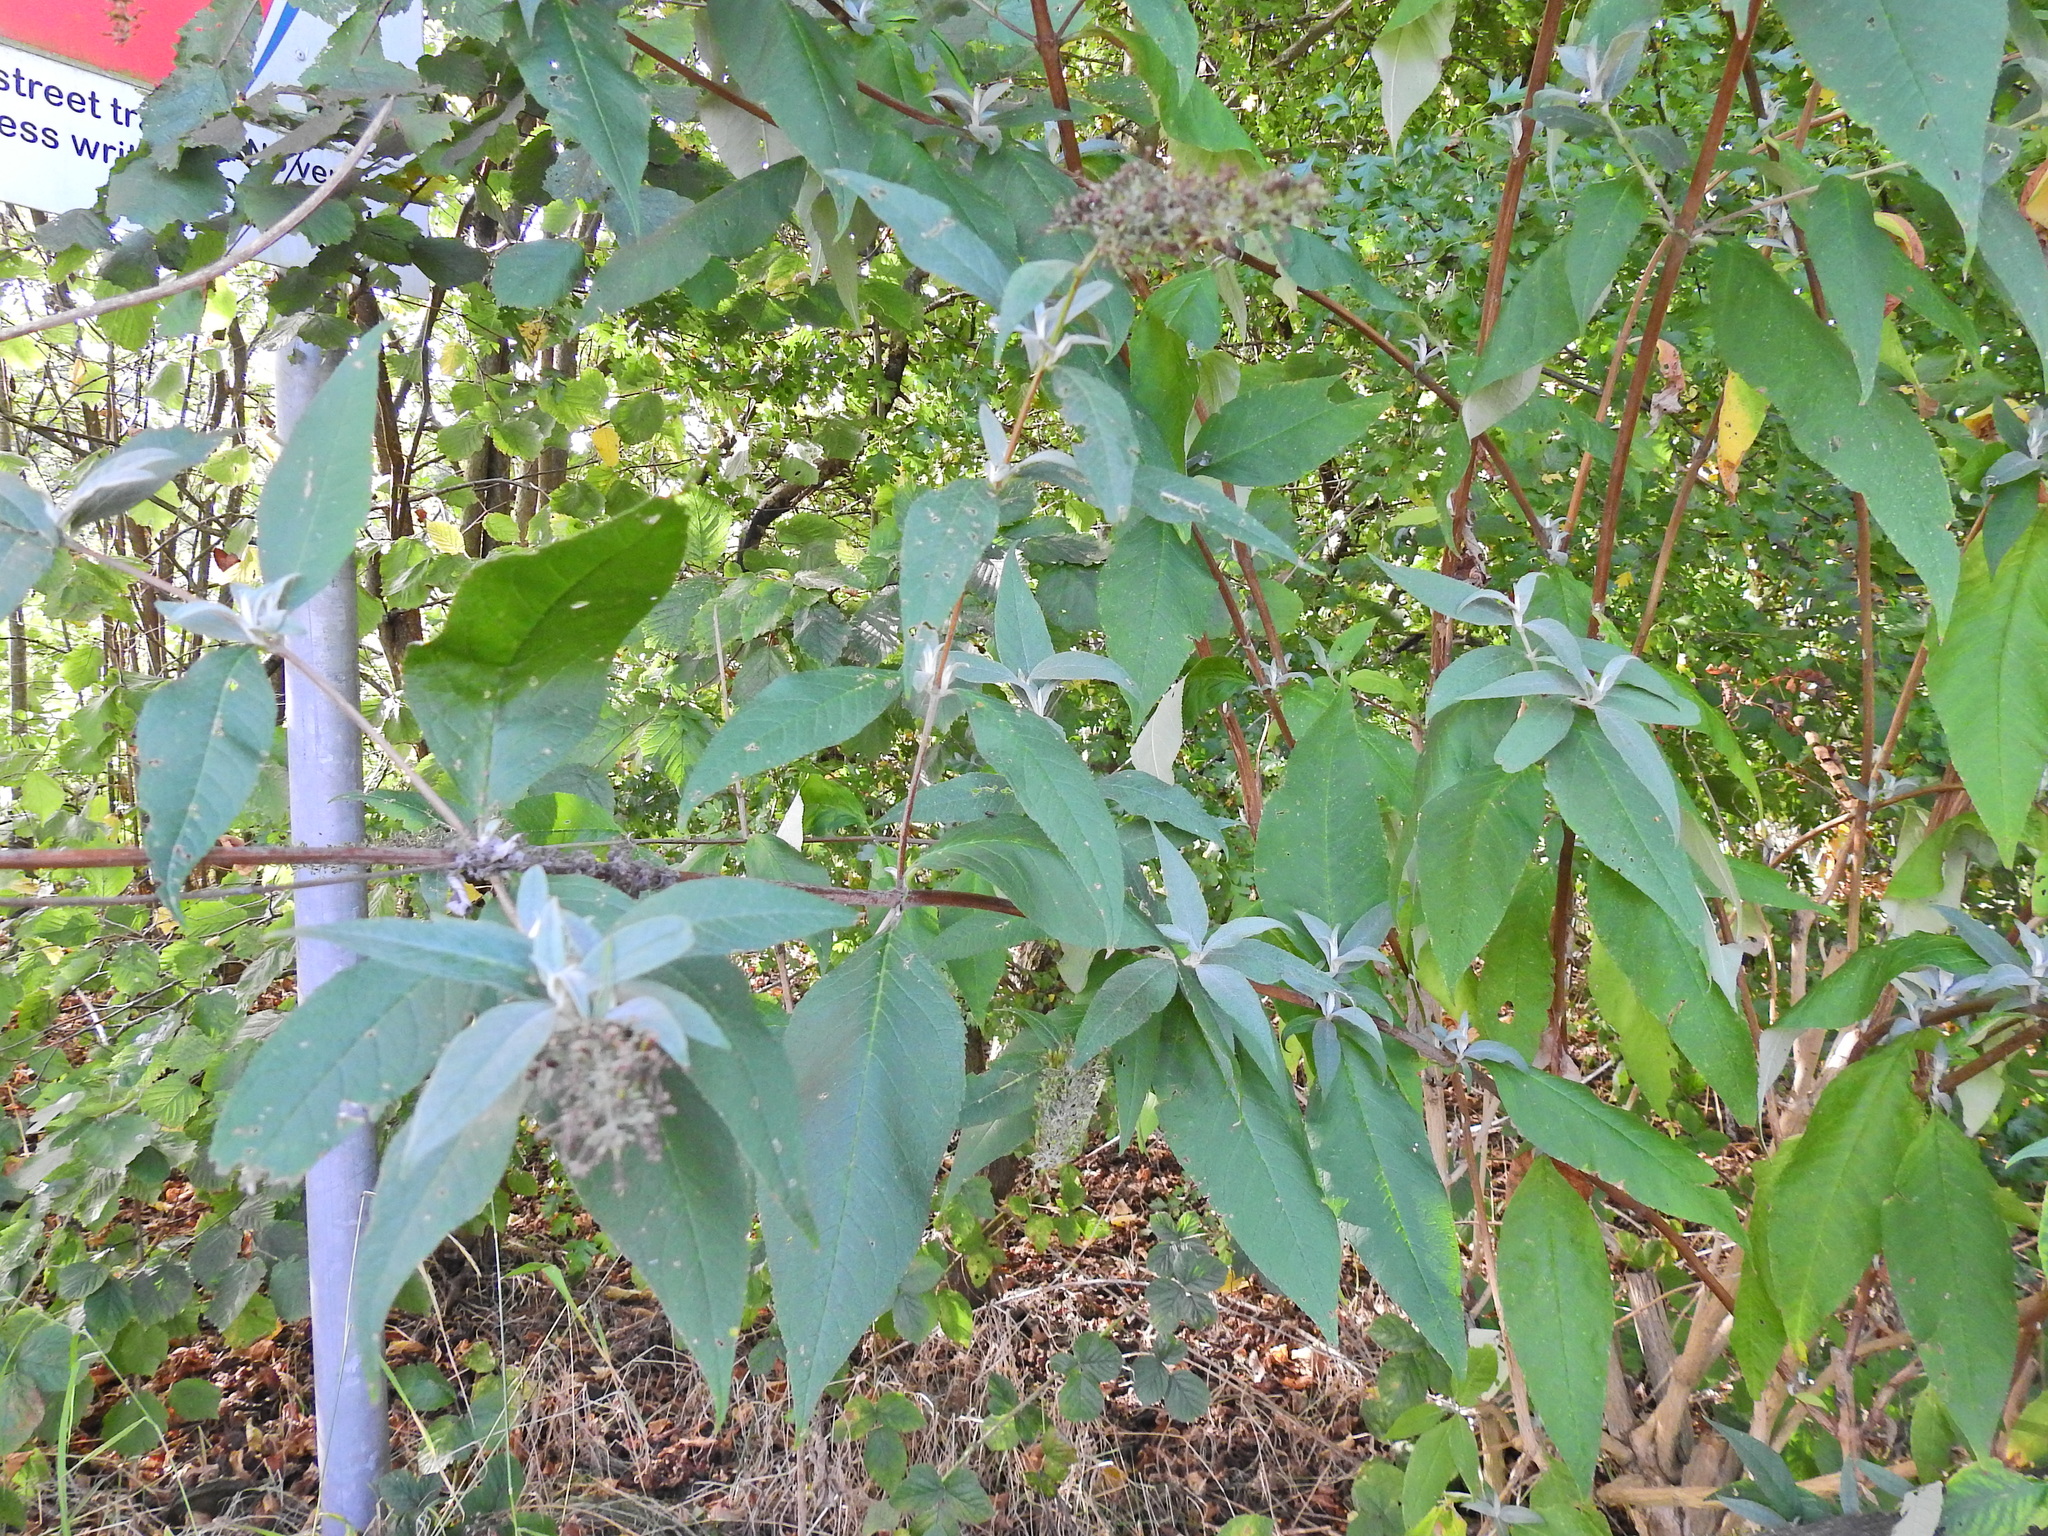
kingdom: Plantae
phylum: Tracheophyta
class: Magnoliopsida
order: Lamiales
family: Scrophulariaceae
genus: Buddleja
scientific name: Buddleja davidii
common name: Butterfly-bush
